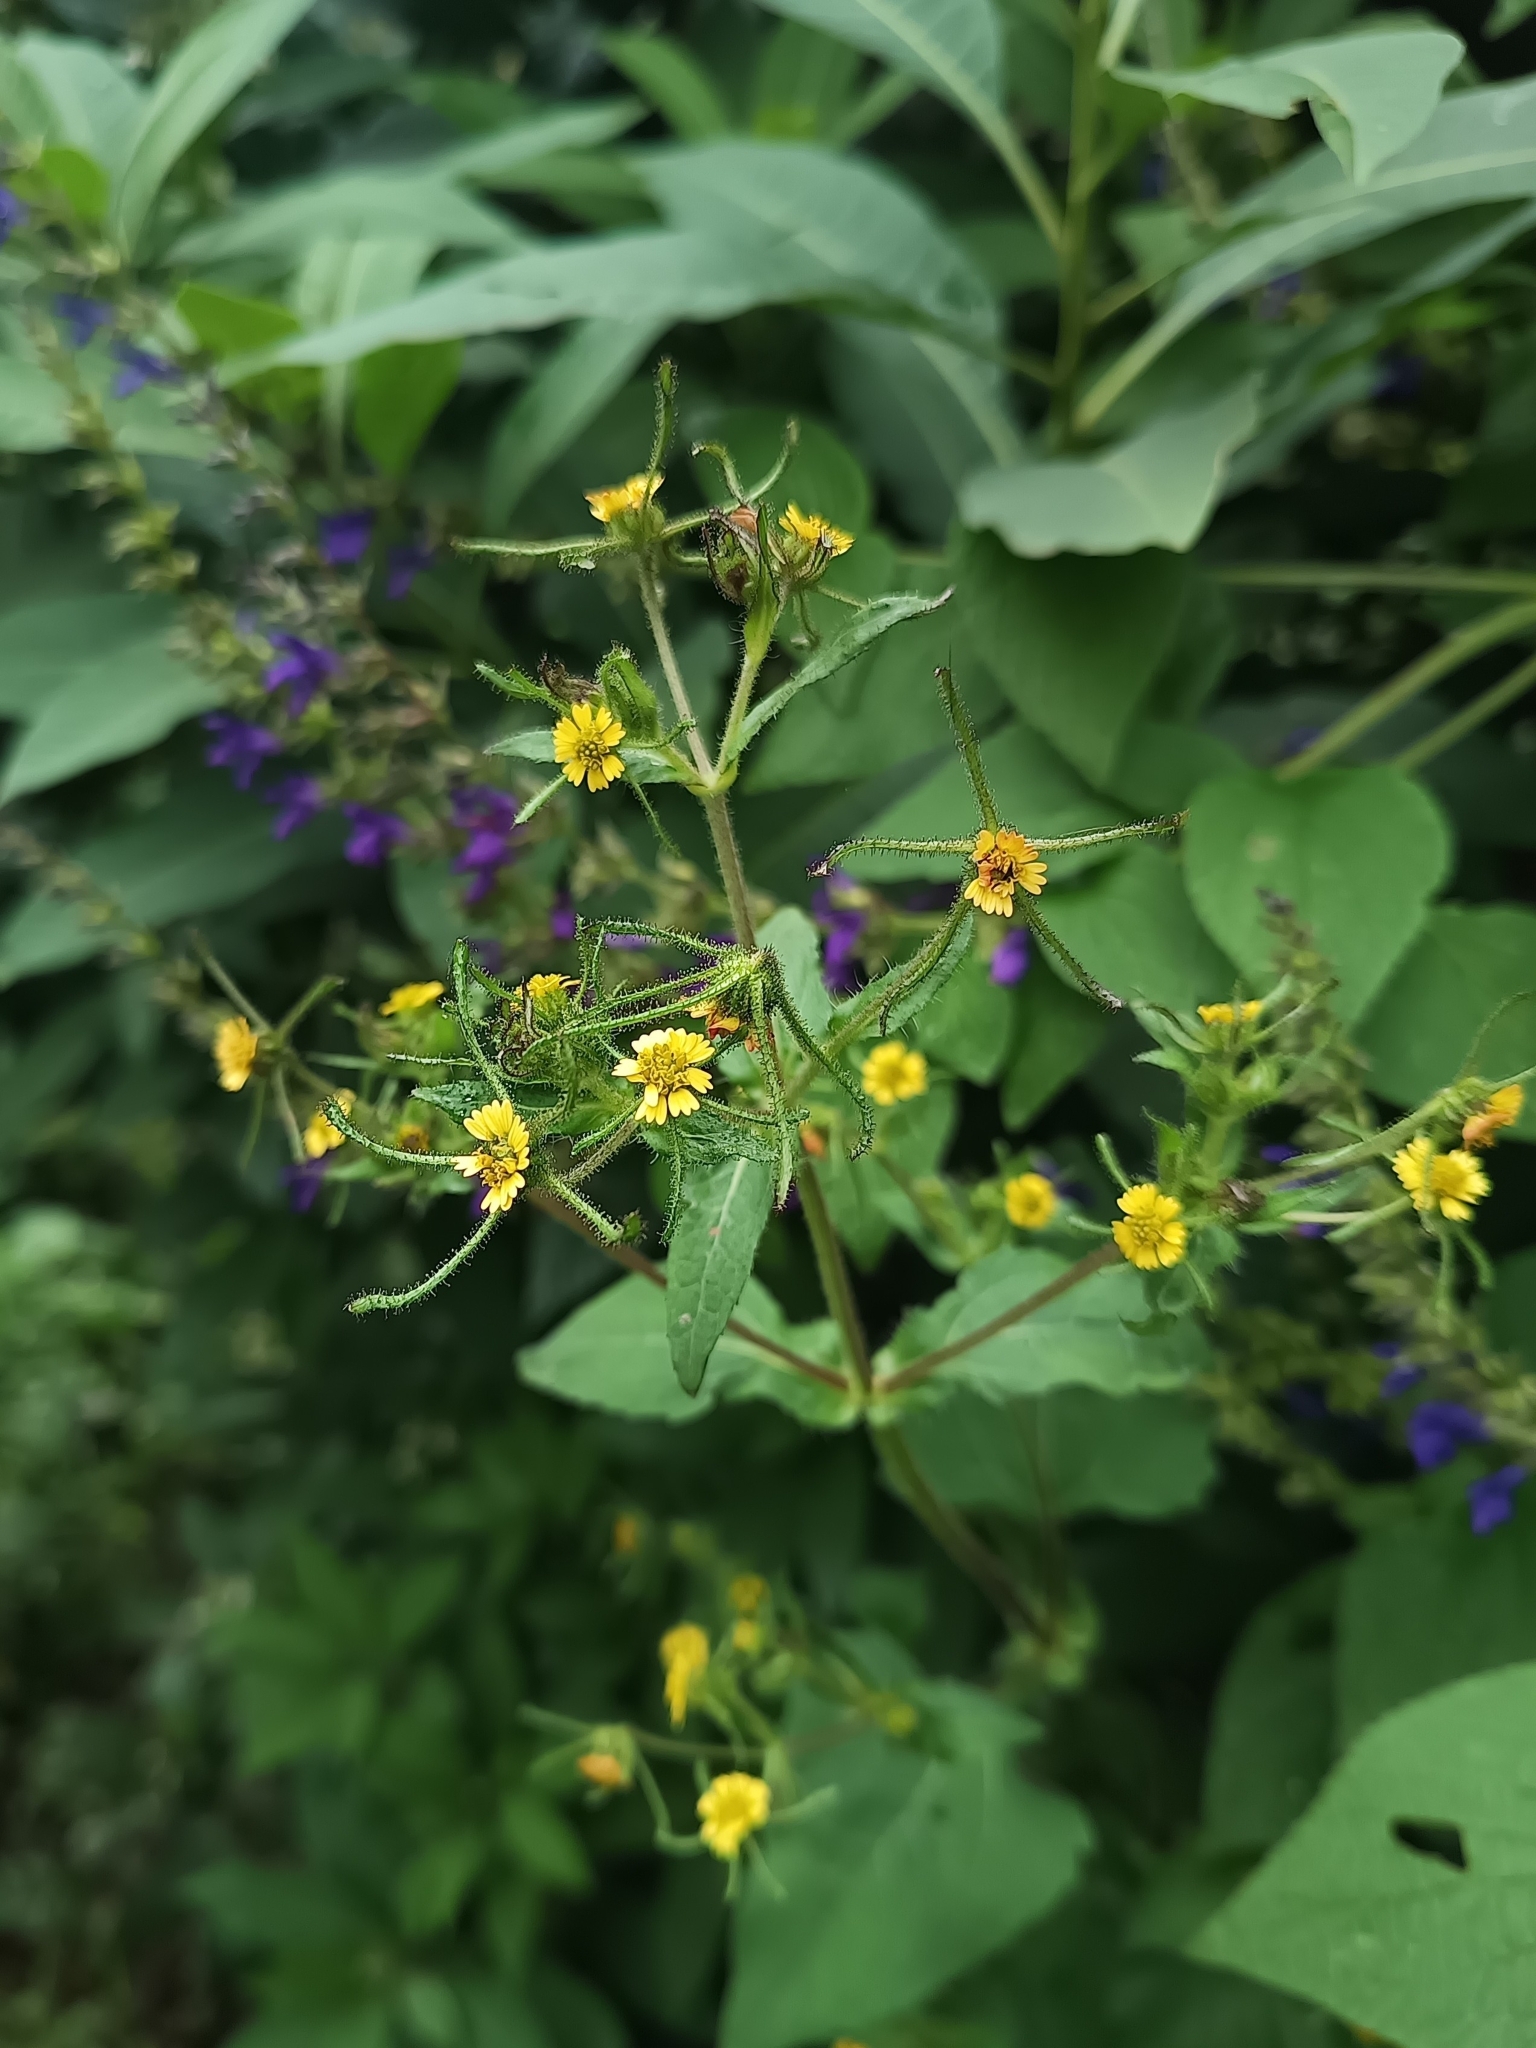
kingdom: Plantae
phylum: Tracheophyta
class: Magnoliopsida
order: Asterales
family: Asteraceae
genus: Sigesbeckia
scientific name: Sigesbeckia jorullensis
